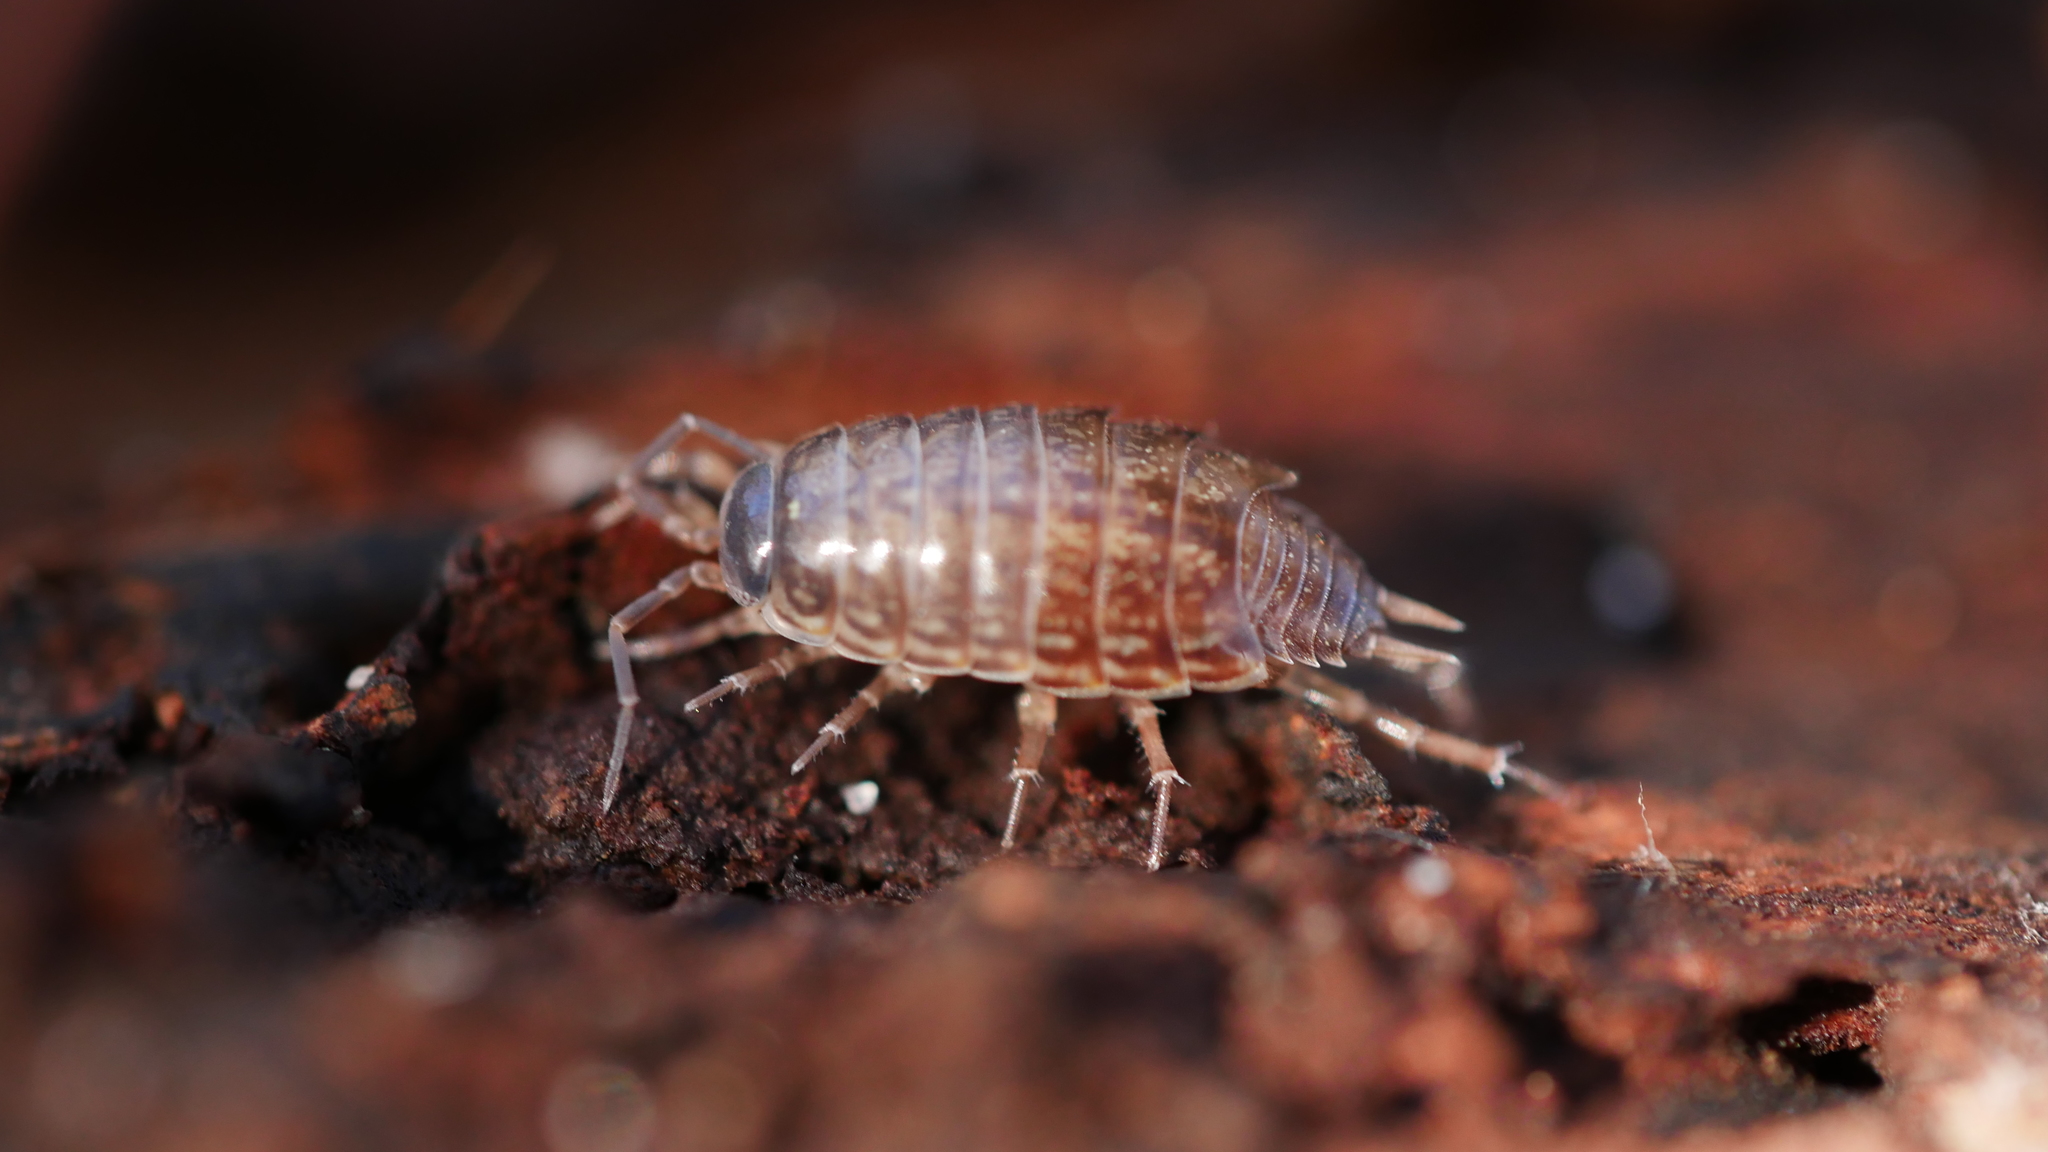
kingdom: Animalia
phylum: Arthropoda
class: Malacostraca
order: Isopoda
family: Philosciidae
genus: Philoscia
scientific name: Philoscia muscorum
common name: Common striped woodlouse
